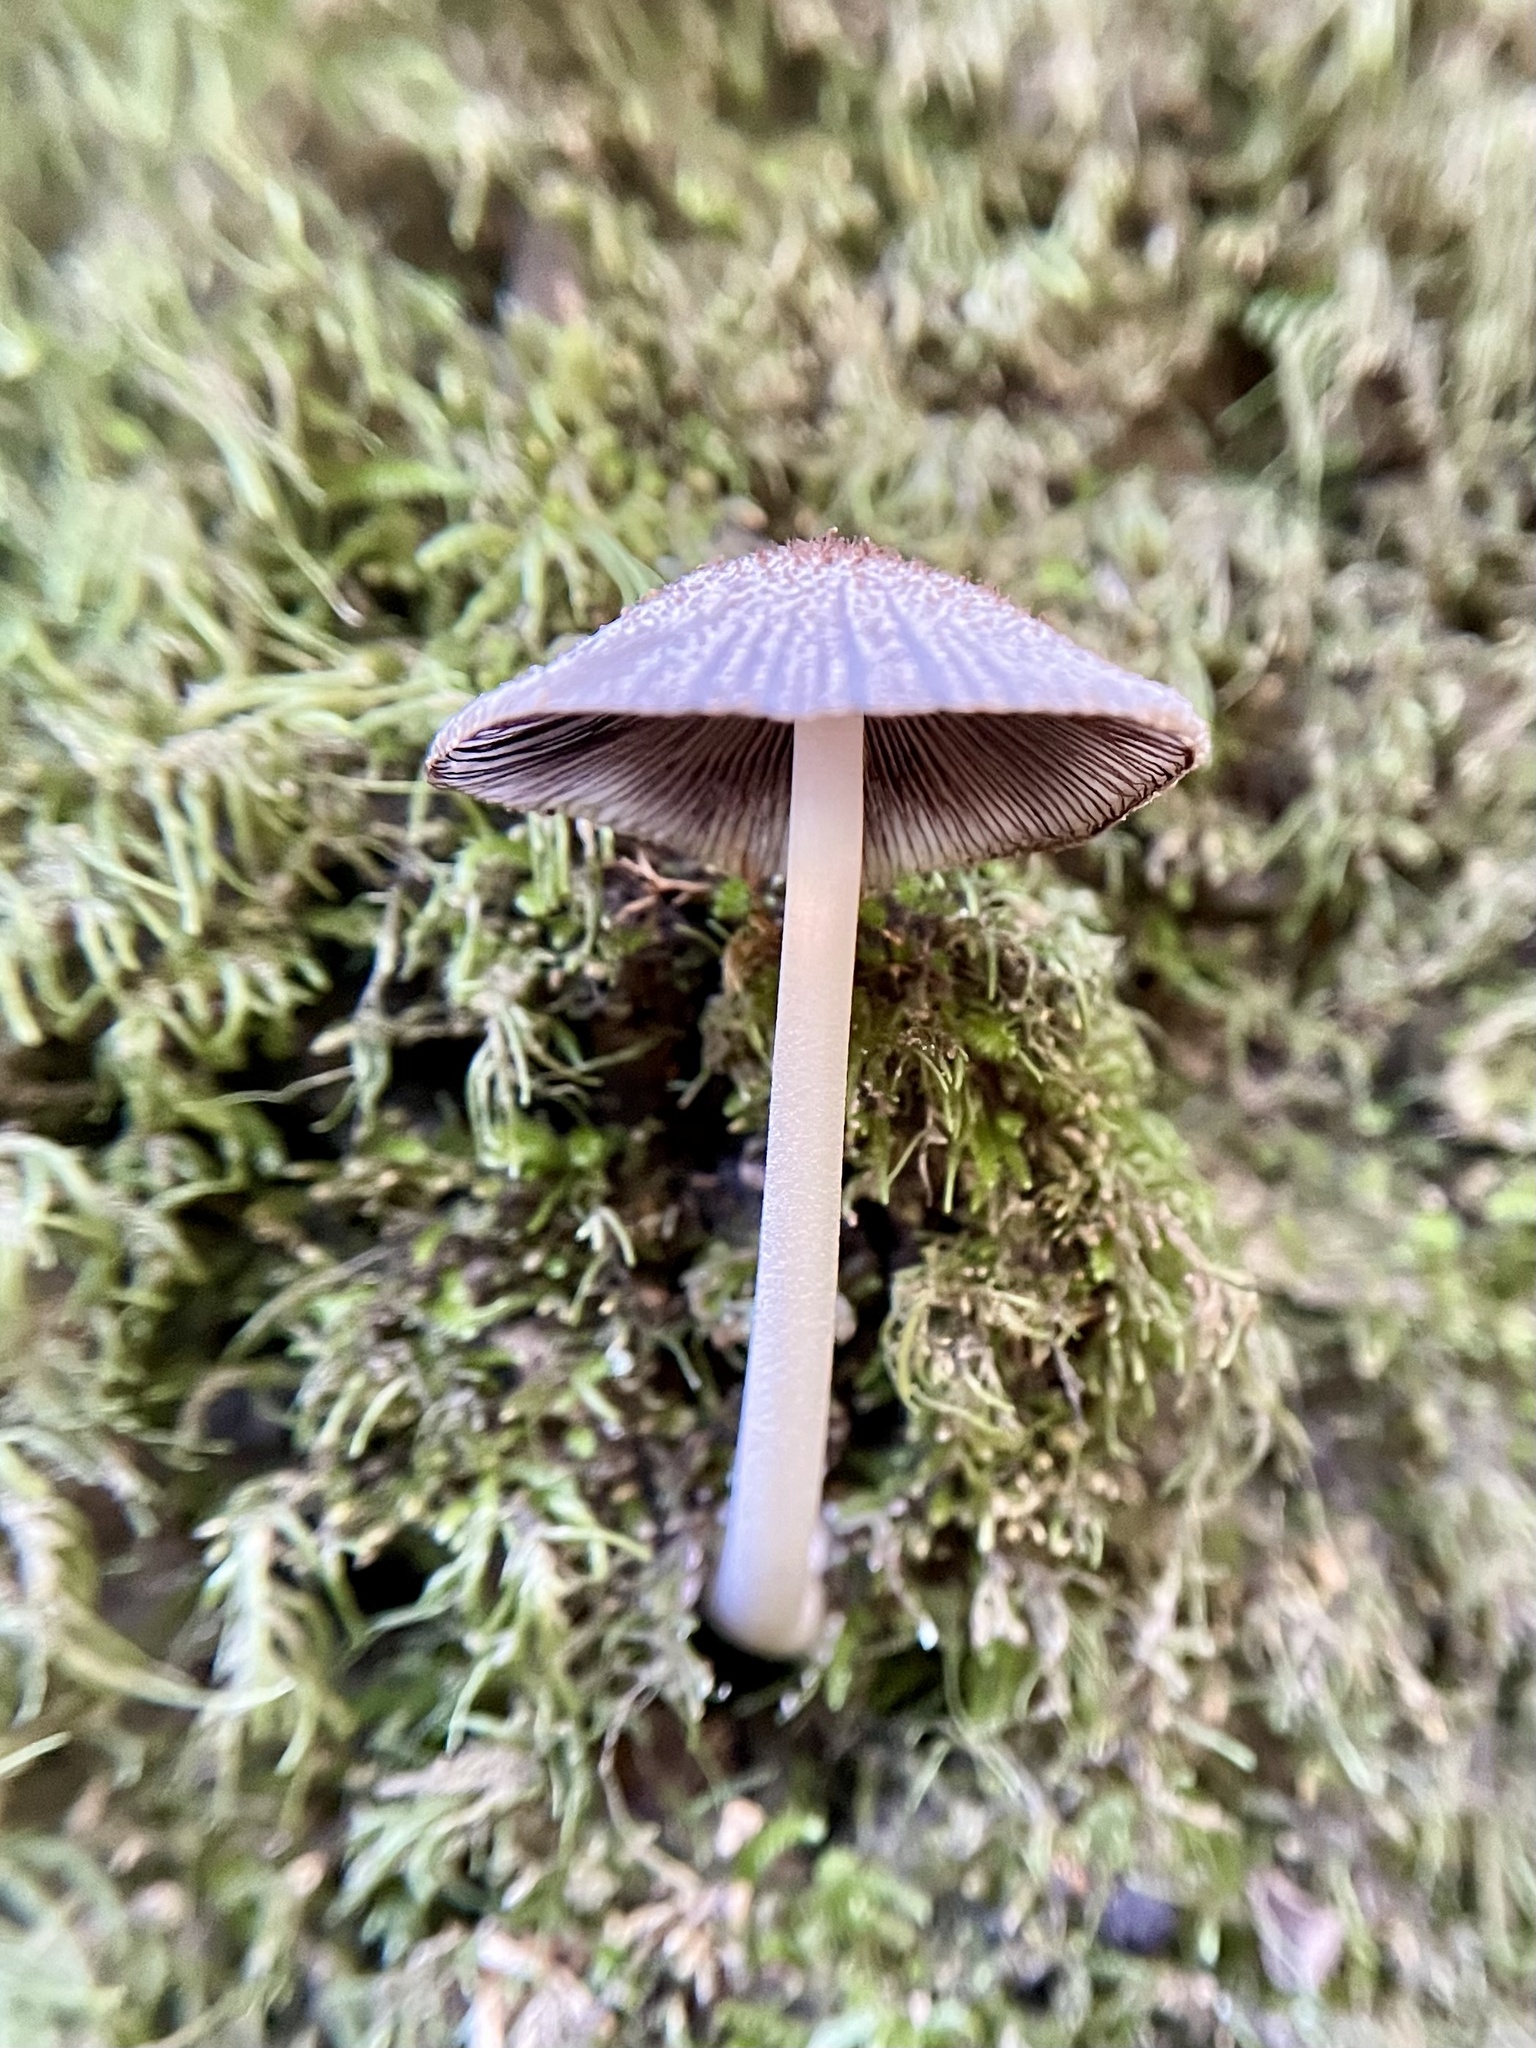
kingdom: Fungi
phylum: Basidiomycota
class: Agaricomycetes
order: Agaricales
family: Psathyrellaceae
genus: Coprinellus
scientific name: Coprinellus radians
